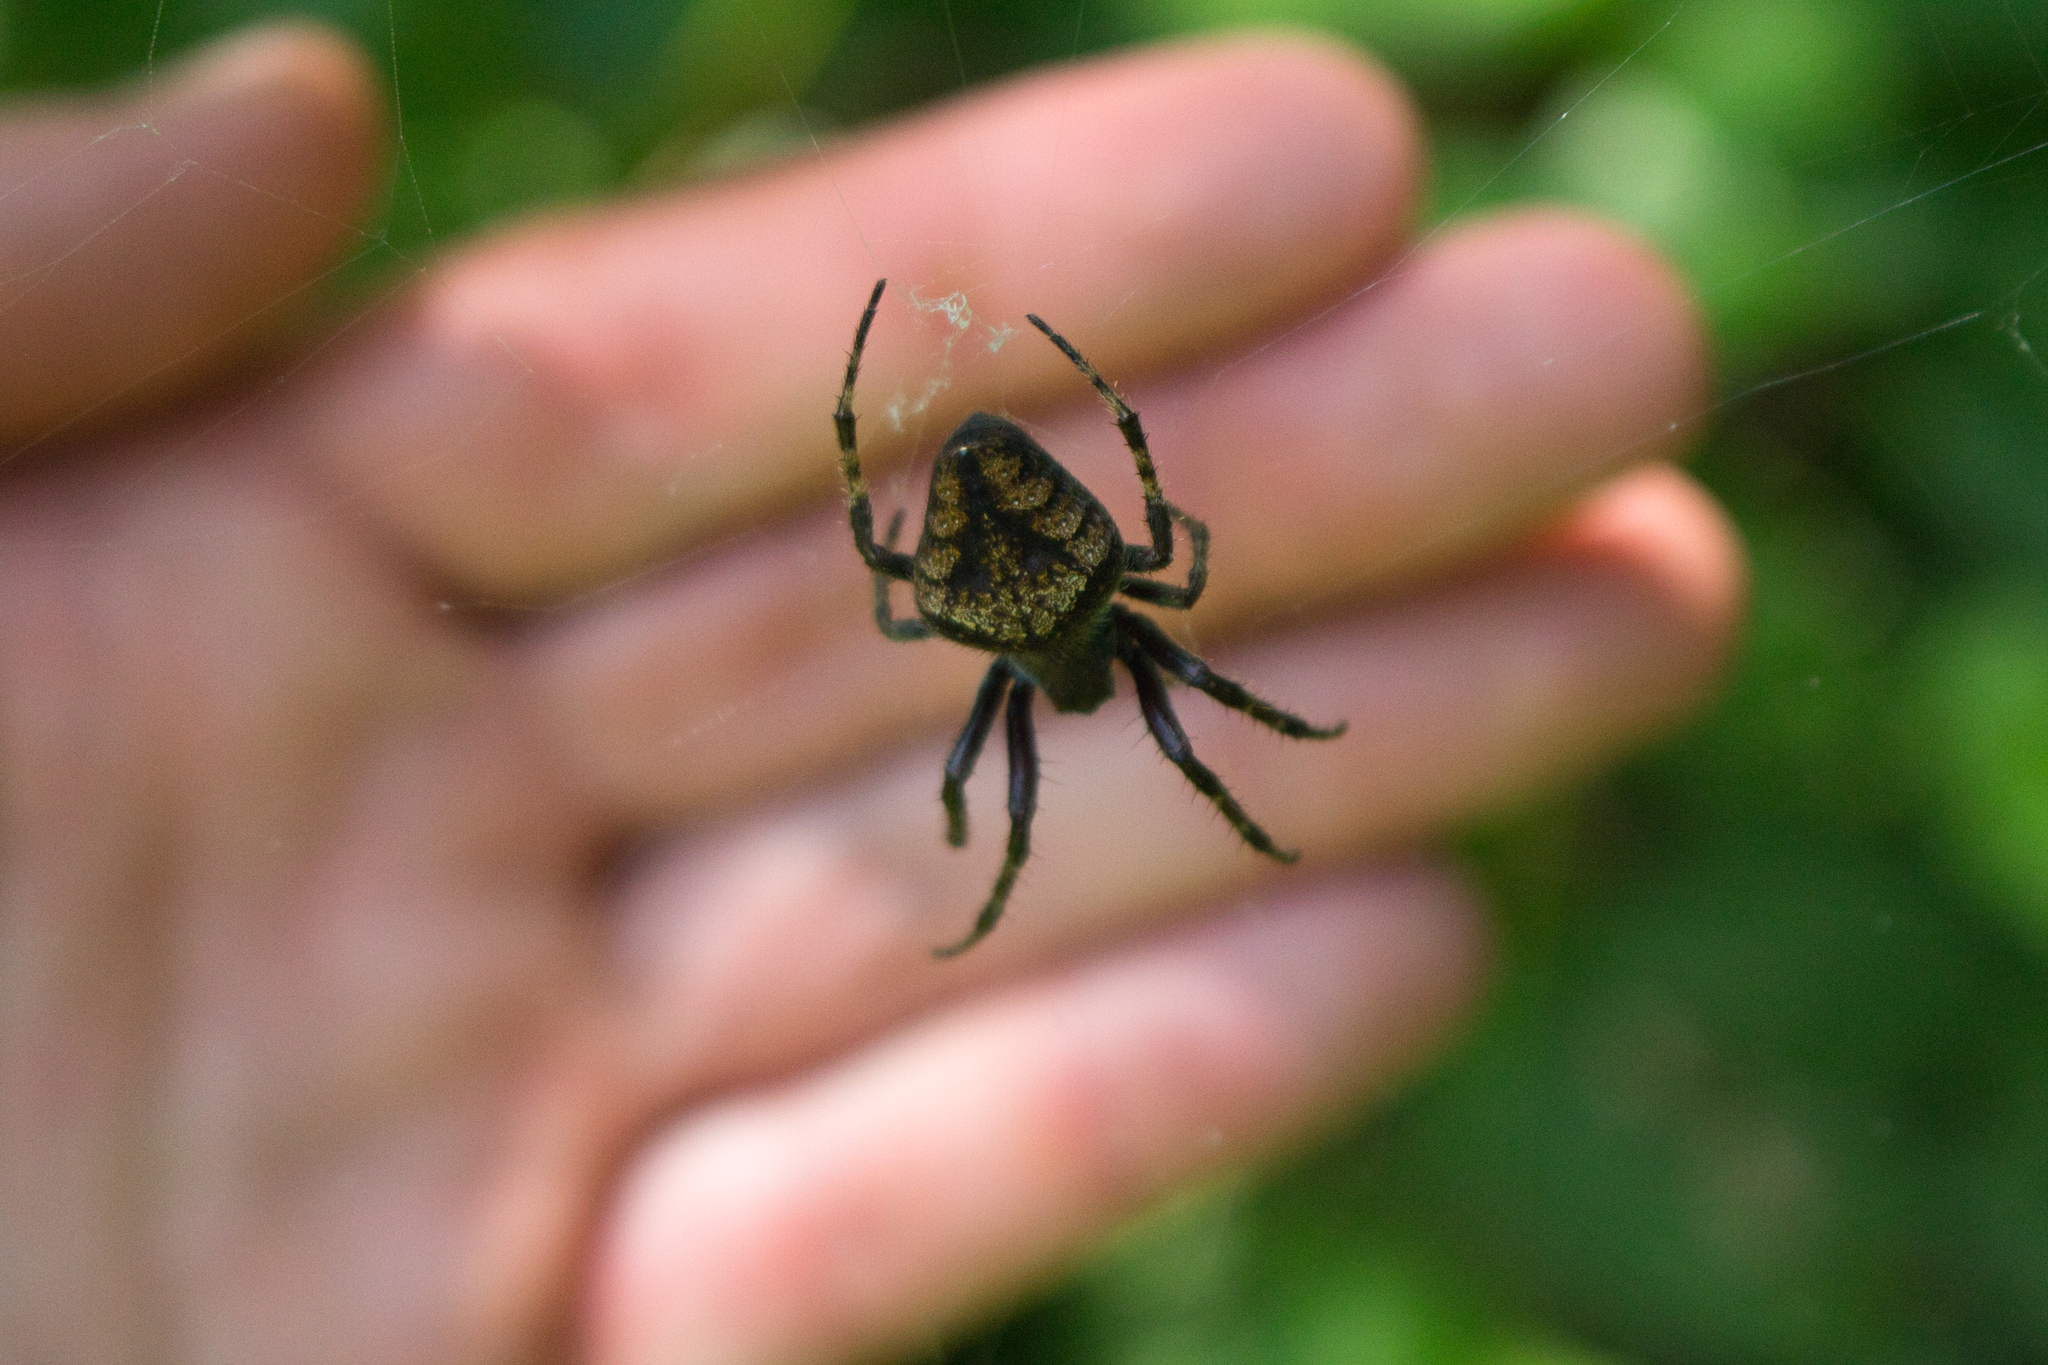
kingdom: Animalia
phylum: Arthropoda
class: Arachnida
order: Araneae
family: Araneidae
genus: Eriophora
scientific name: Eriophora edax
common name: Orb weavers
